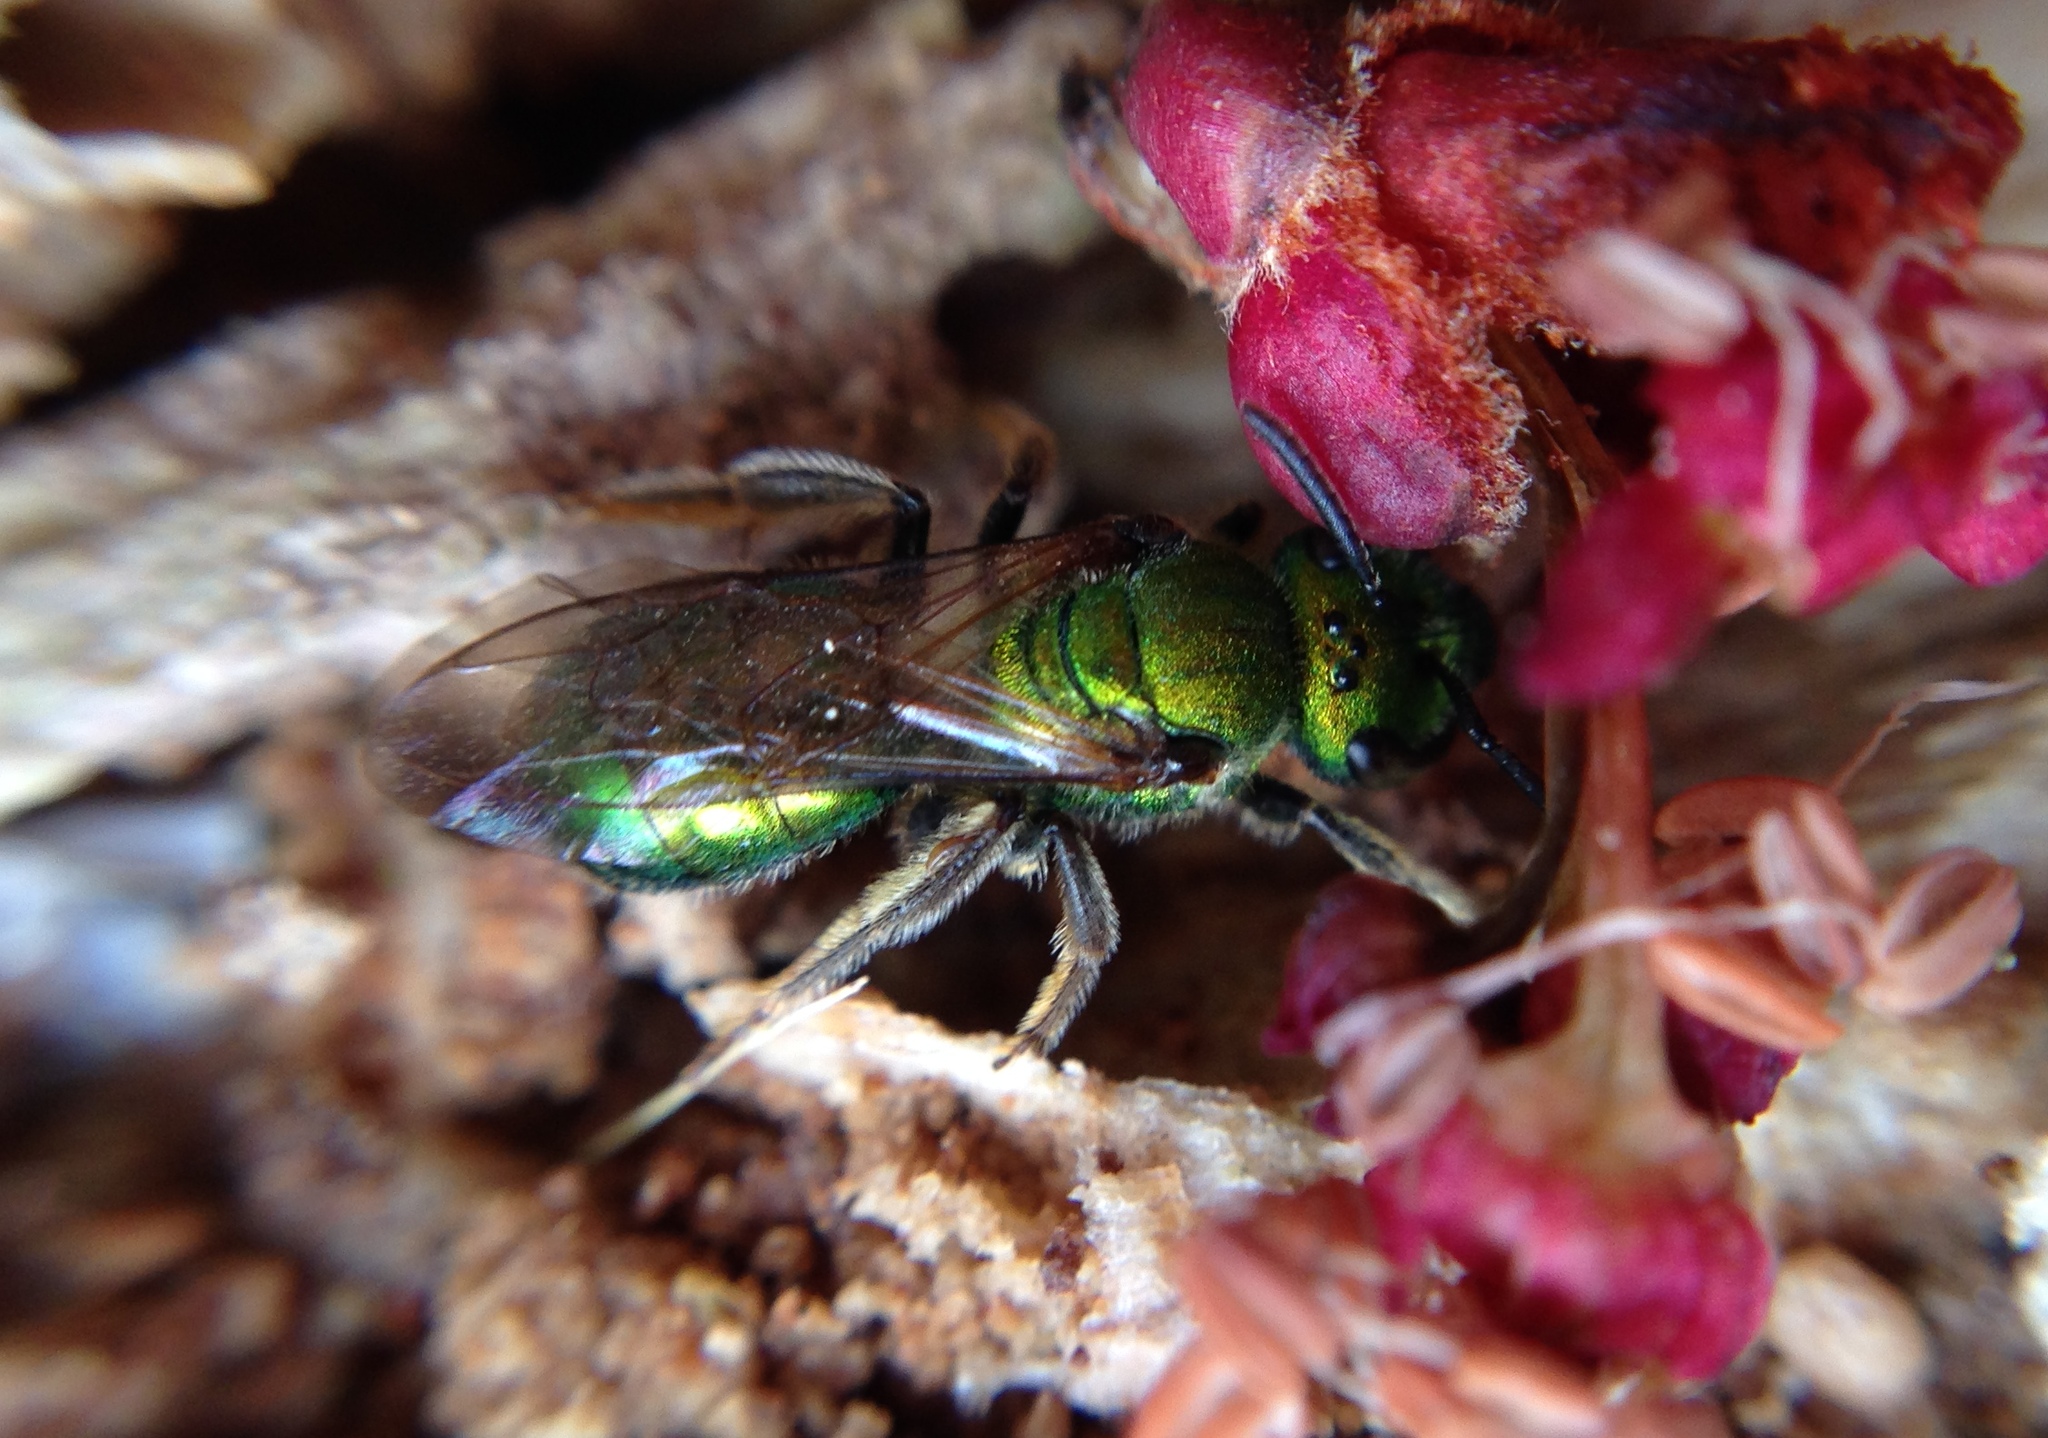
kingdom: Animalia
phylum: Arthropoda
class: Insecta
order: Hymenoptera
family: Halictidae
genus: Augochlora
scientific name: Augochlora pura
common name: Pure green sweat bee
